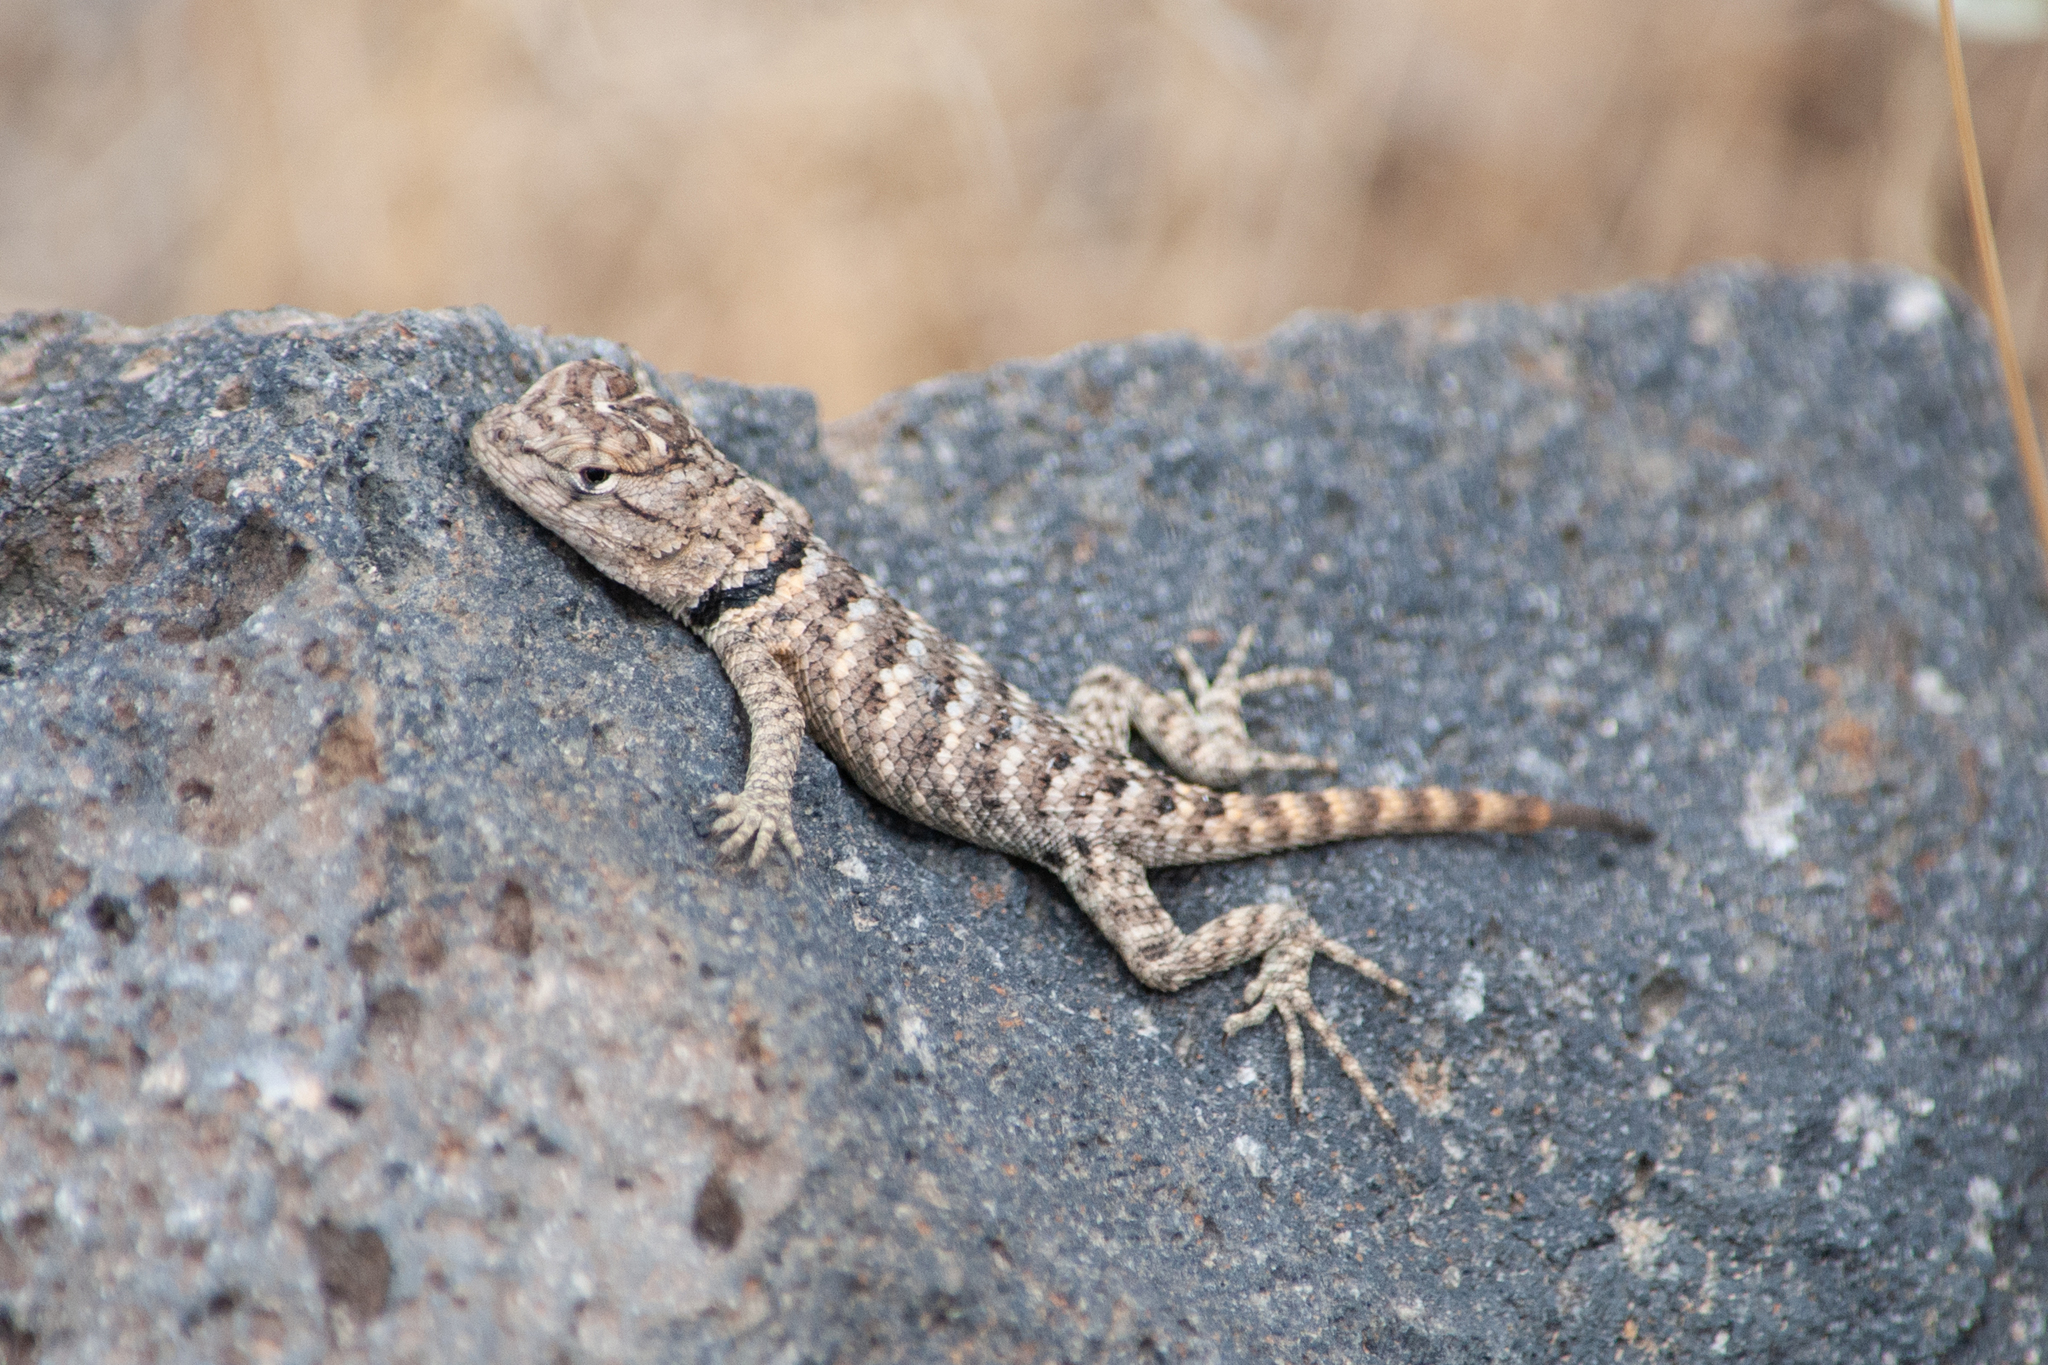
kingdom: Animalia
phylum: Chordata
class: Squamata
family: Phrynosomatidae
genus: Sceloporus
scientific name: Sceloporus uniformis
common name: Yellow-backed spiny lizard
